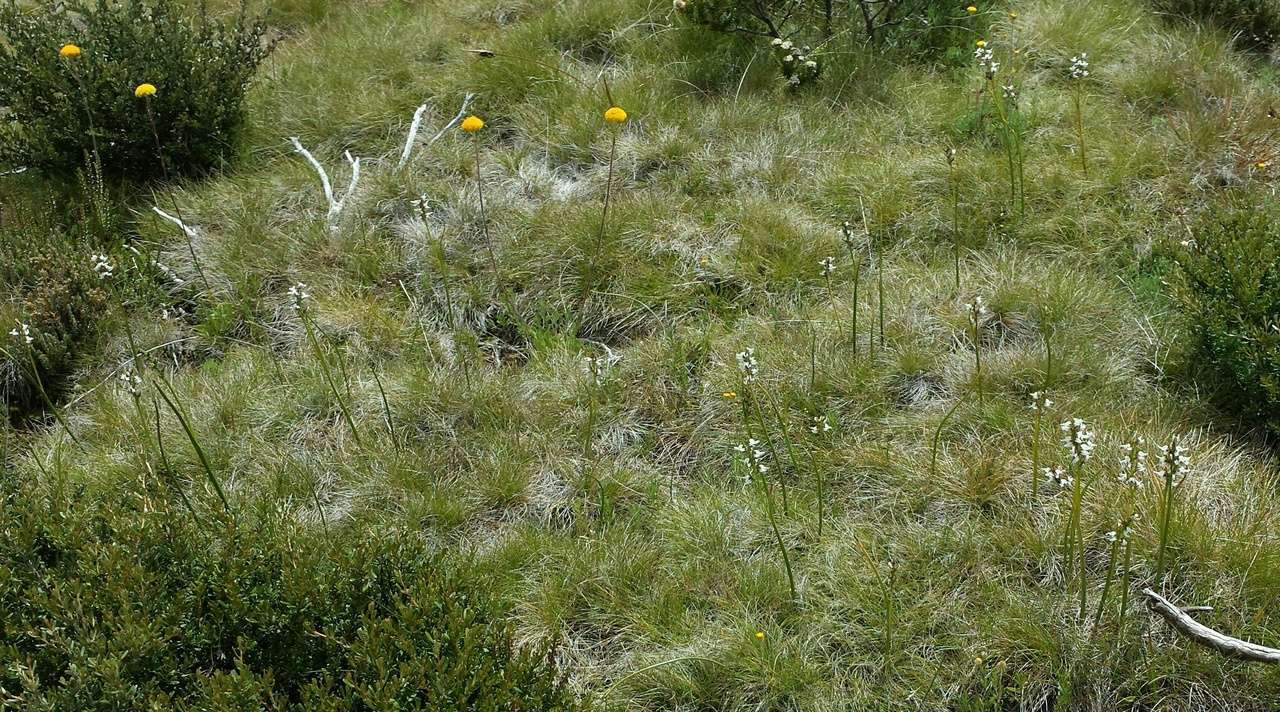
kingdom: Plantae
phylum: Tracheophyta
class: Liliopsida
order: Asparagales
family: Orchidaceae
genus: Prasophyllum
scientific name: Prasophyllum suttonii
